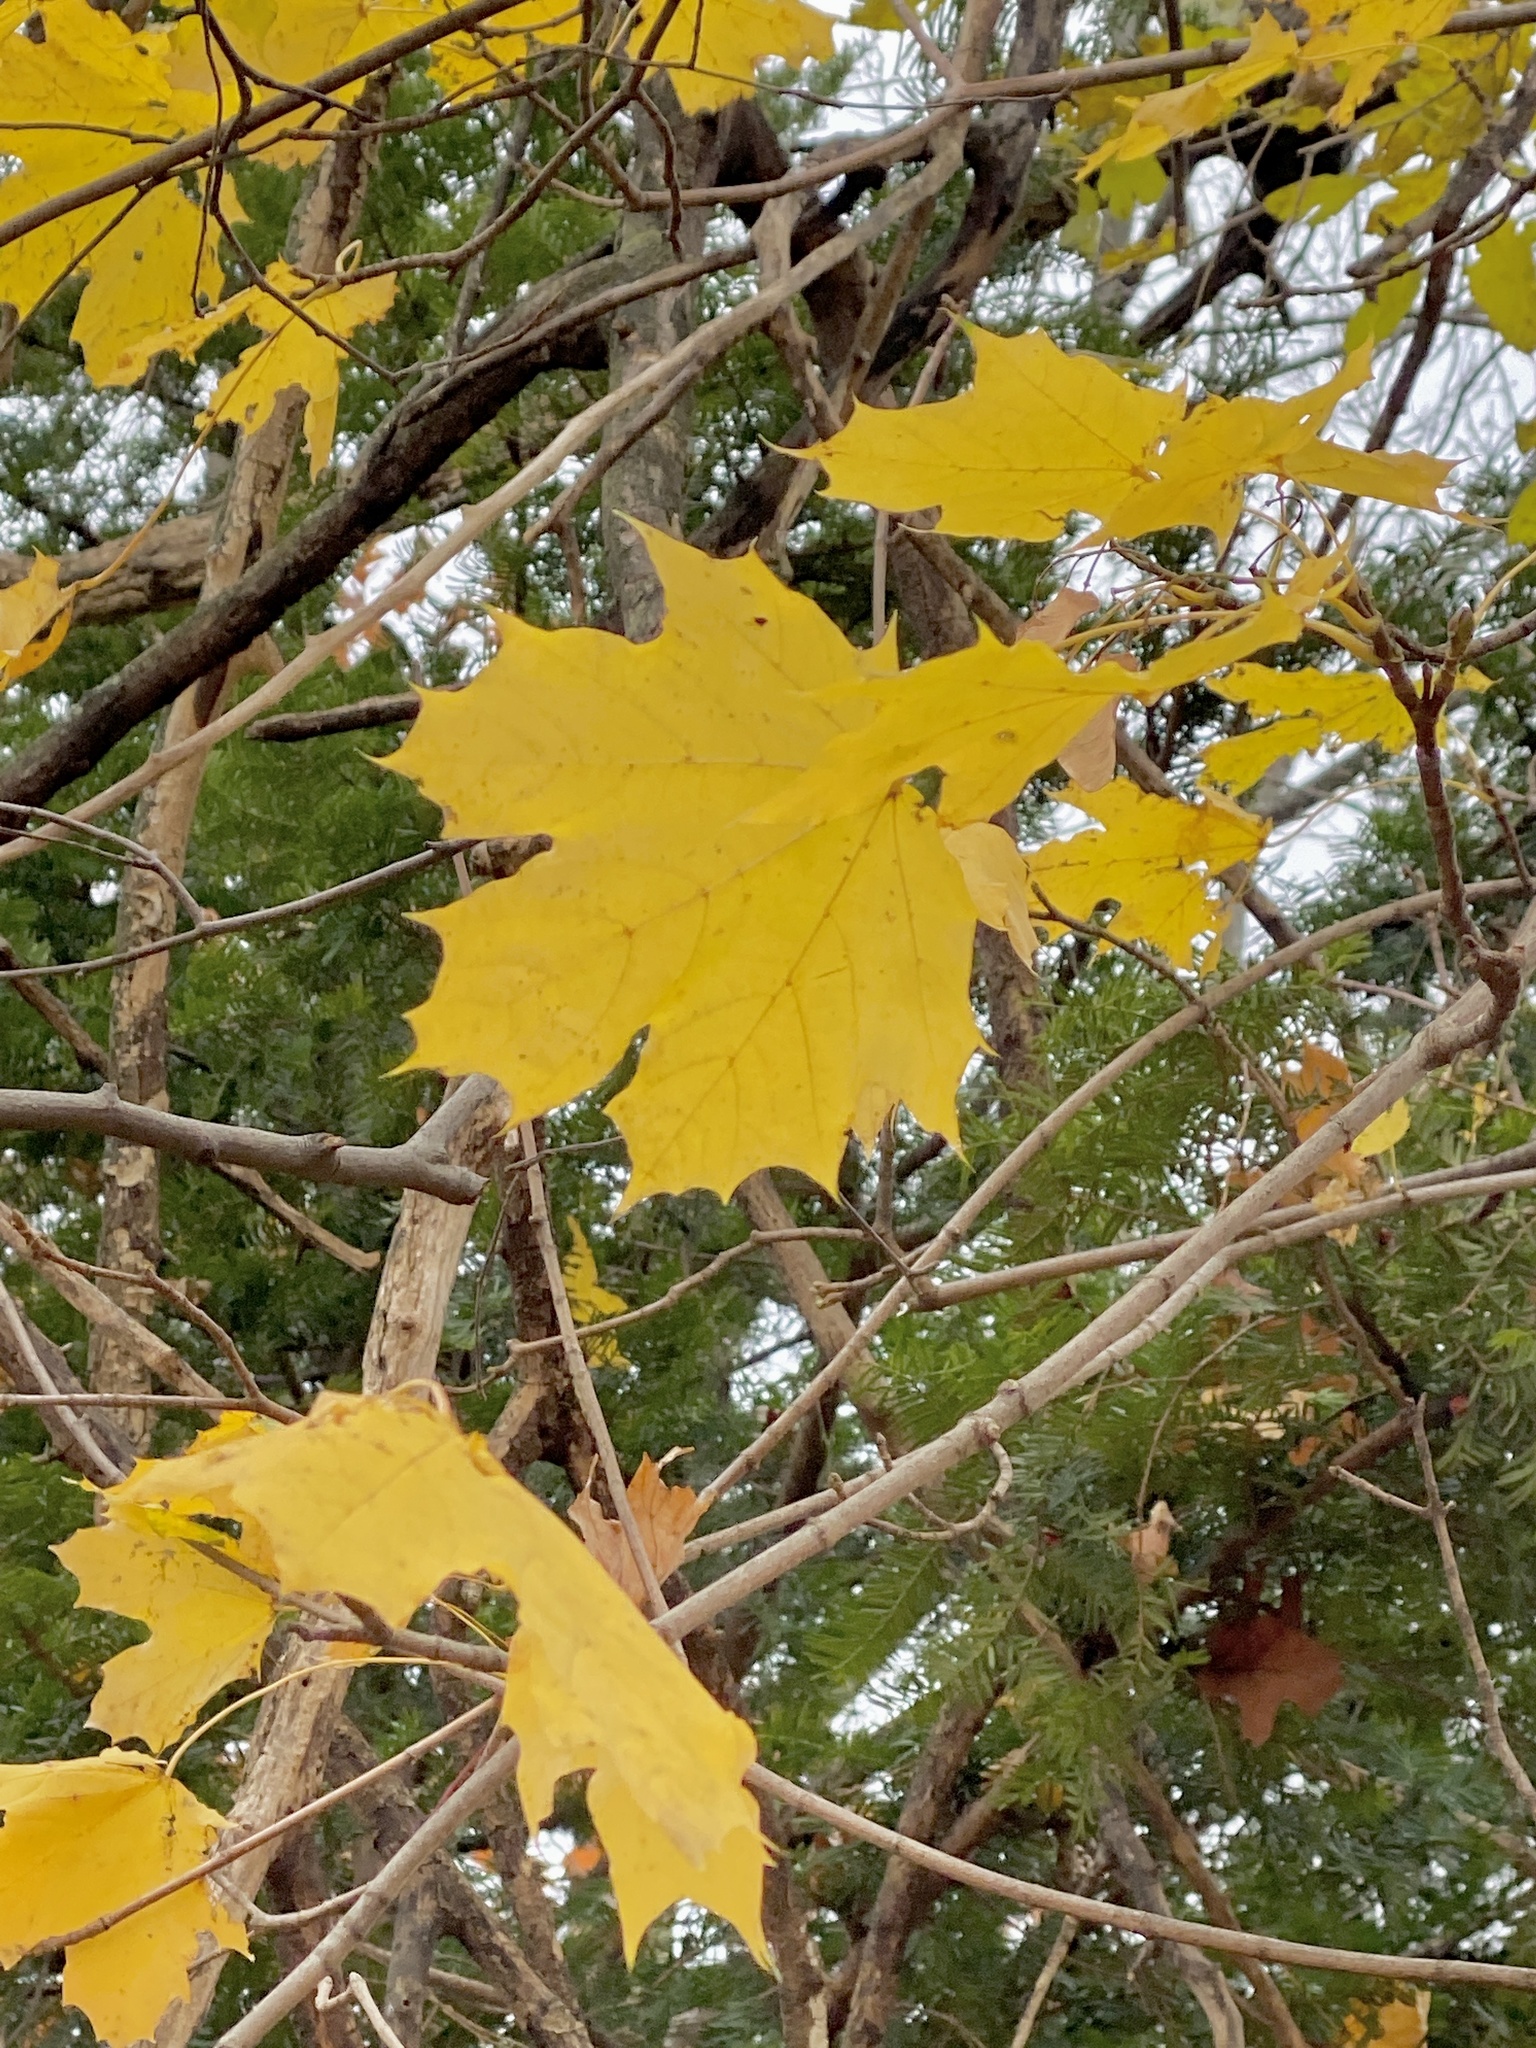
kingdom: Plantae
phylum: Tracheophyta
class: Magnoliopsida
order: Sapindales
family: Sapindaceae
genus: Acer
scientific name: Acer platanoides
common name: Norway maple
